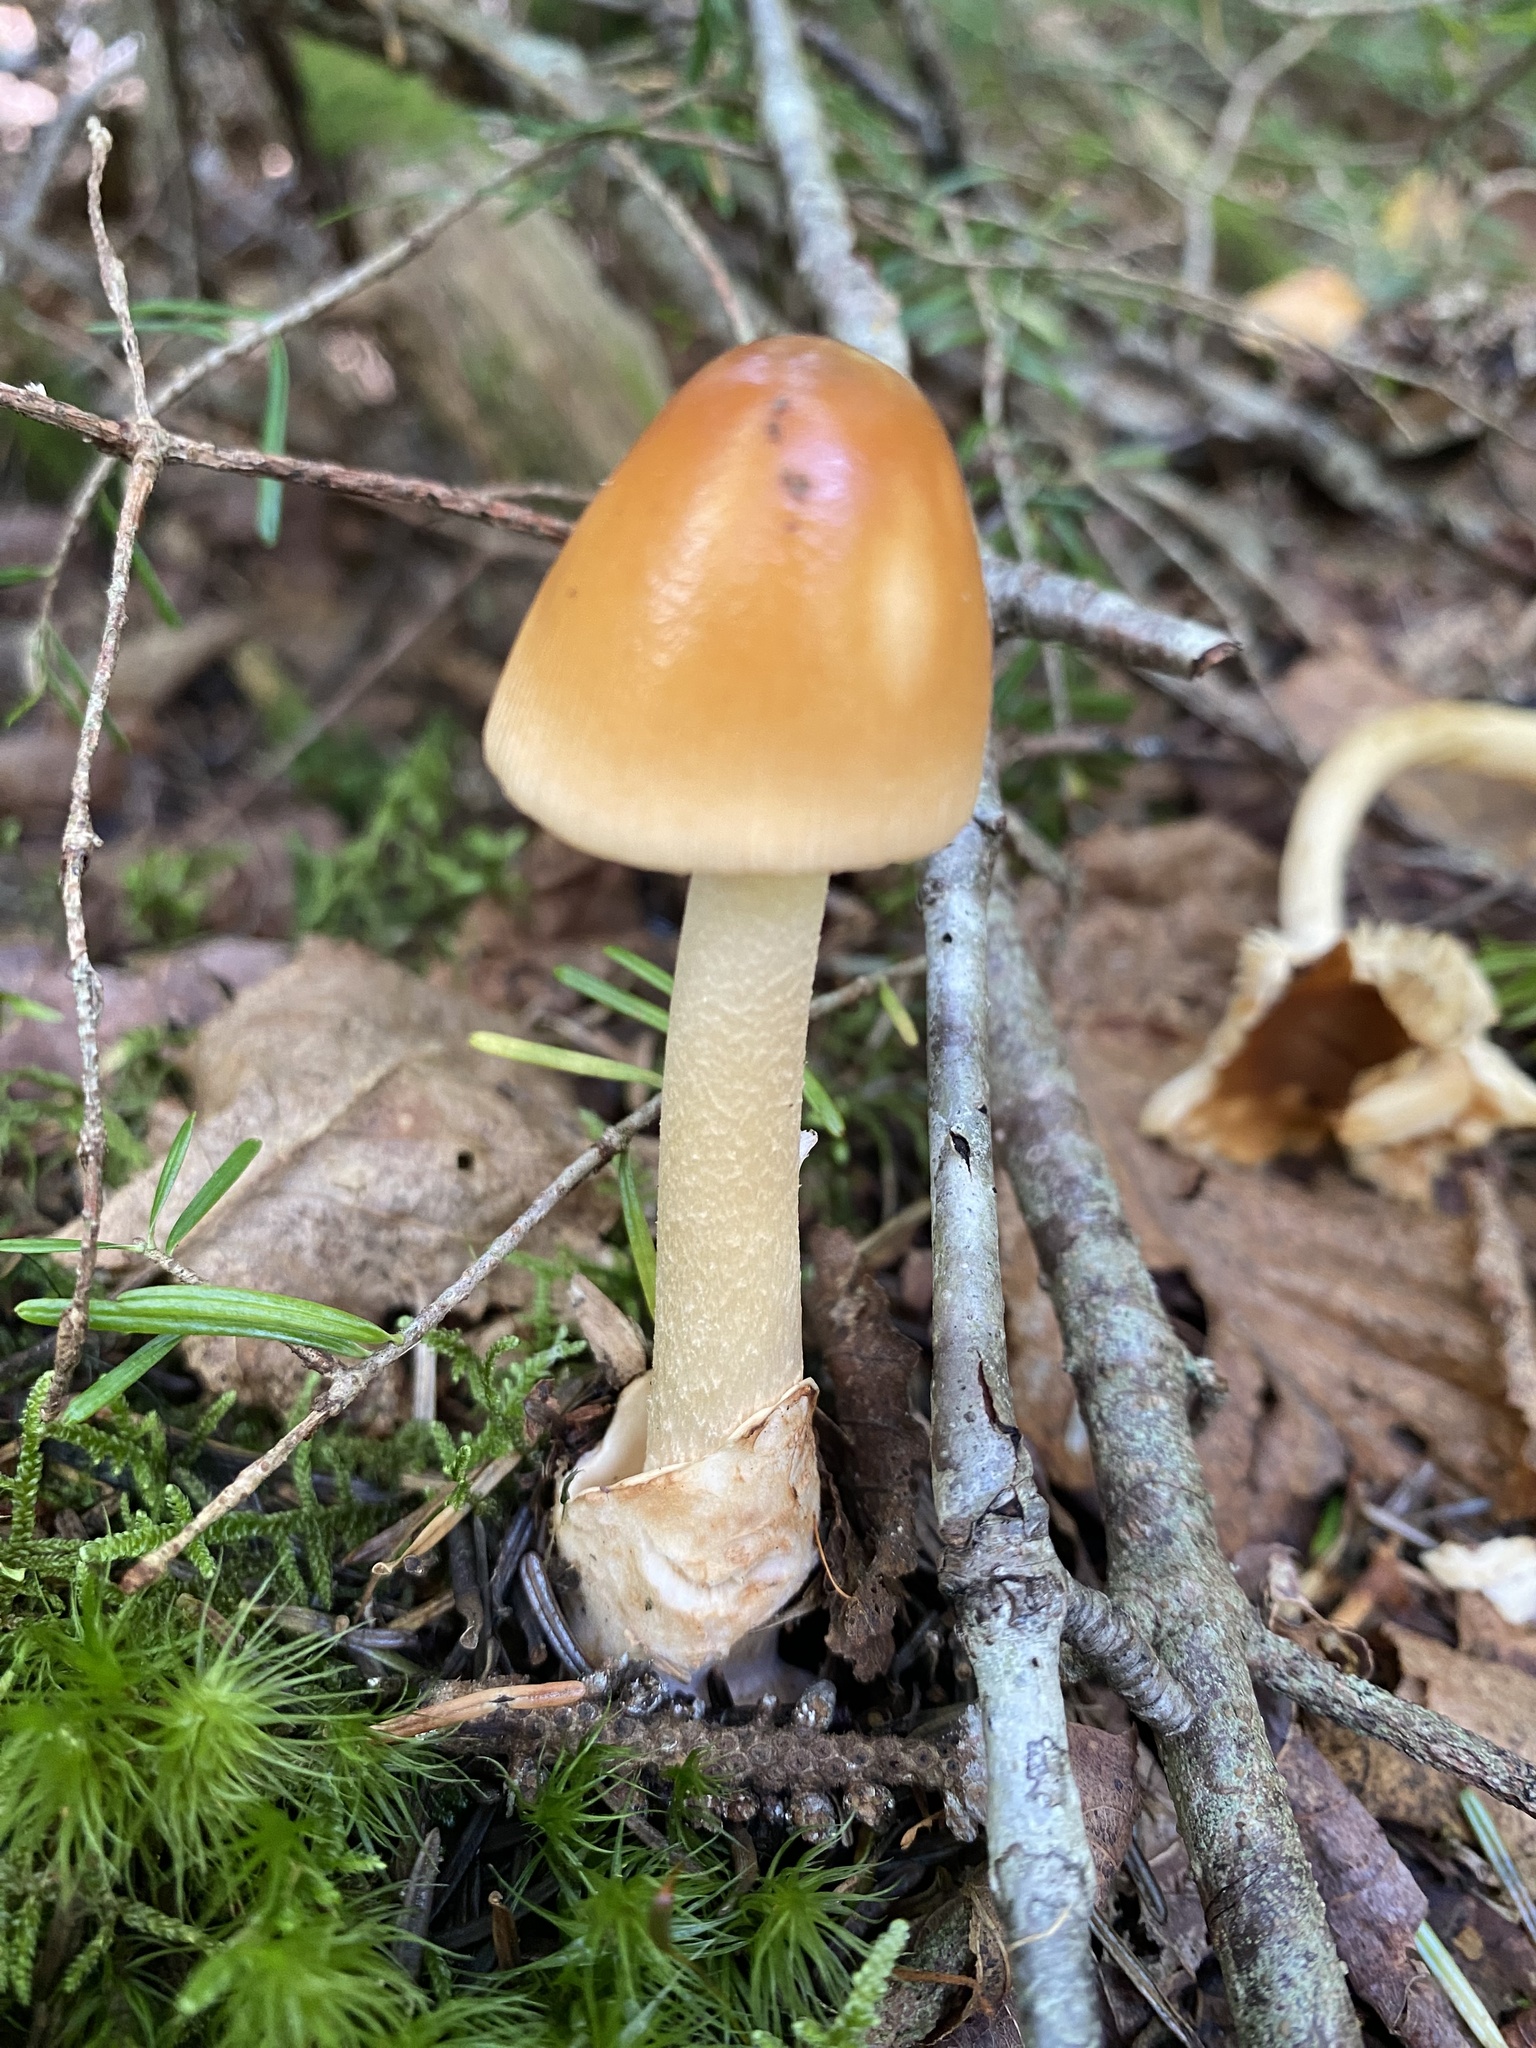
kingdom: Fungi
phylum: Basidiomycota
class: Agaricomycetes
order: Agaricales
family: Amanitaceae
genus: Amanita
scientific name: Amanita fulva
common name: Tawny grisette
